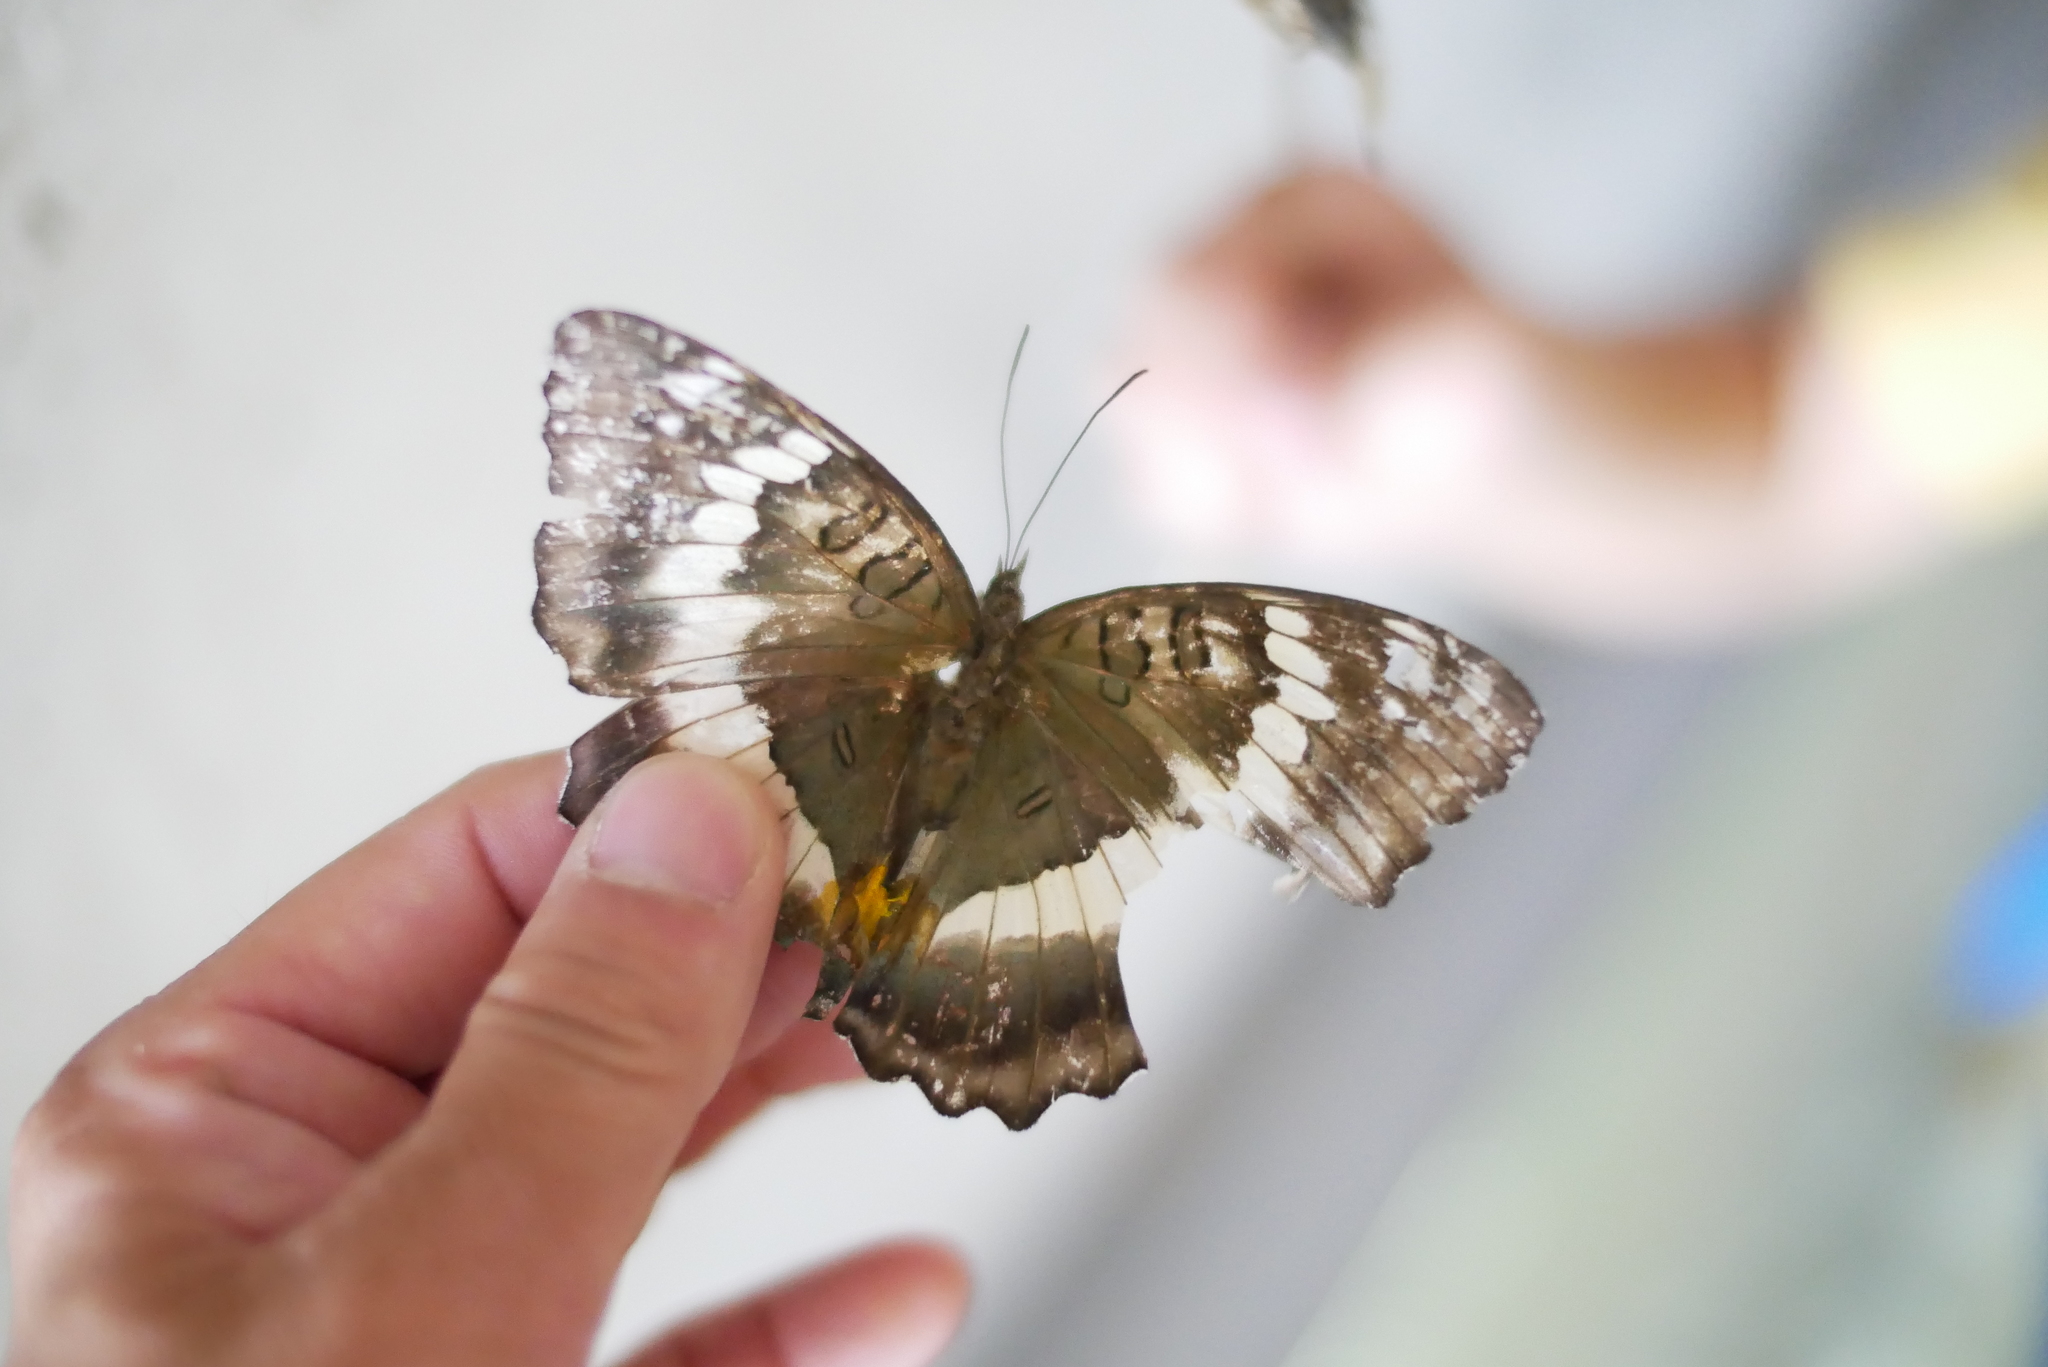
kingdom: Animalia
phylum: Arthropoda
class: Insecta
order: Lepidoptera
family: Nymphalidae
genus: Euthalia
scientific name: Euthalia formosana
